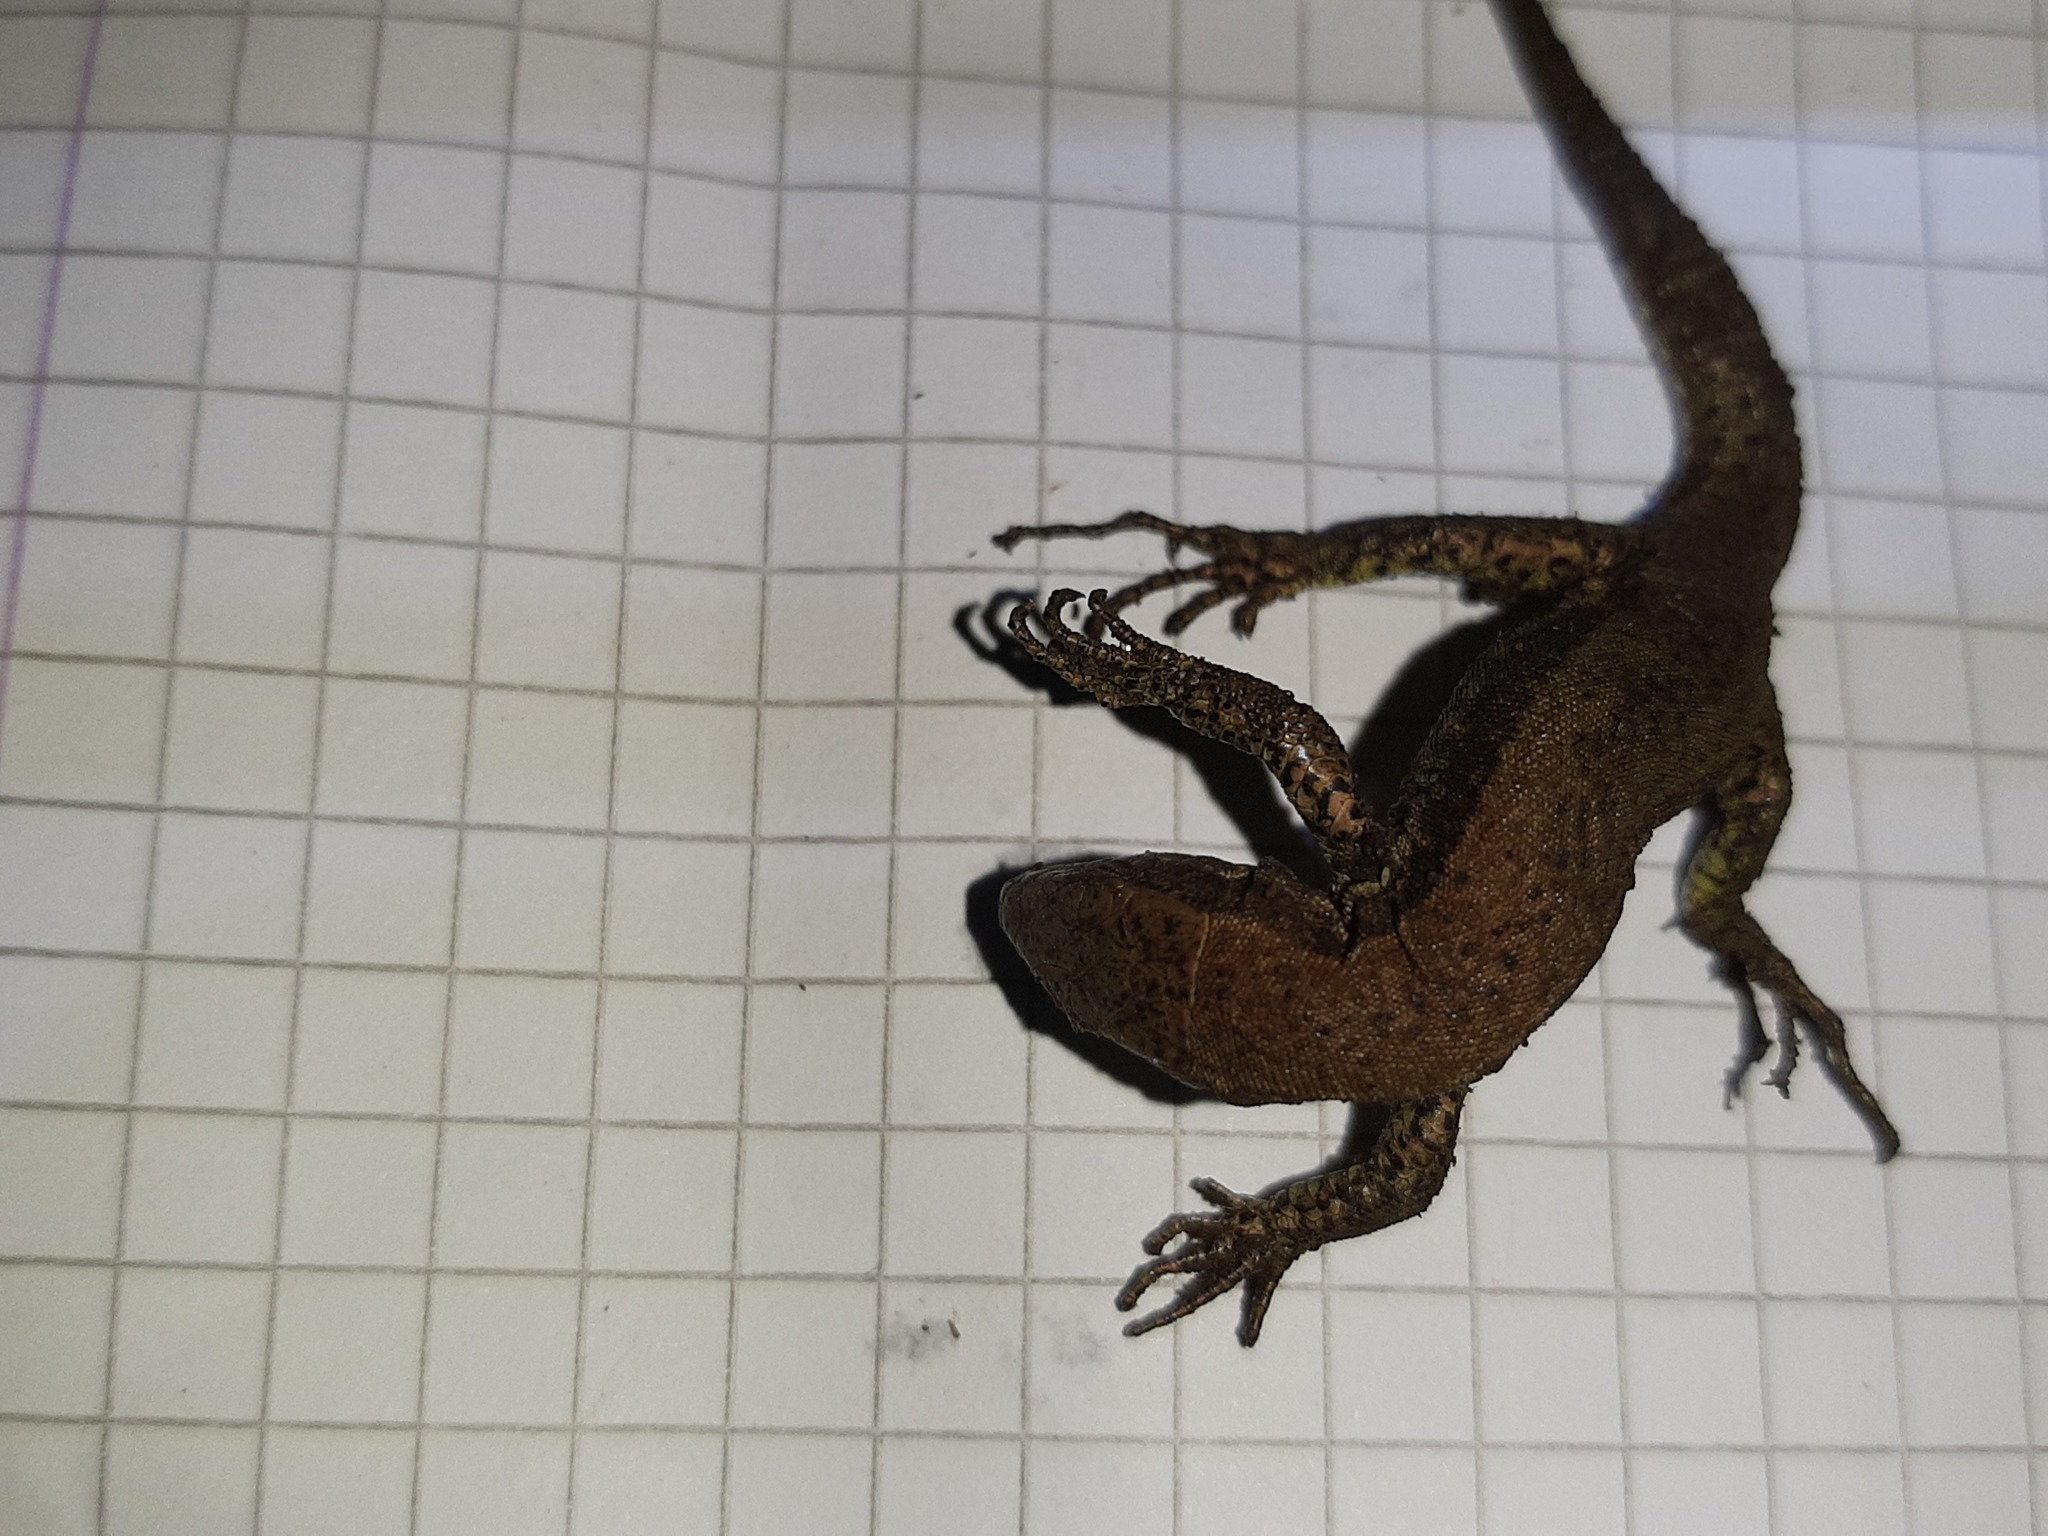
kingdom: Animalia
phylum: Chordata
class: Squamata
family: Lacertidae
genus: Podarcis
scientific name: Podarcis muralis
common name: Common wall lizard
